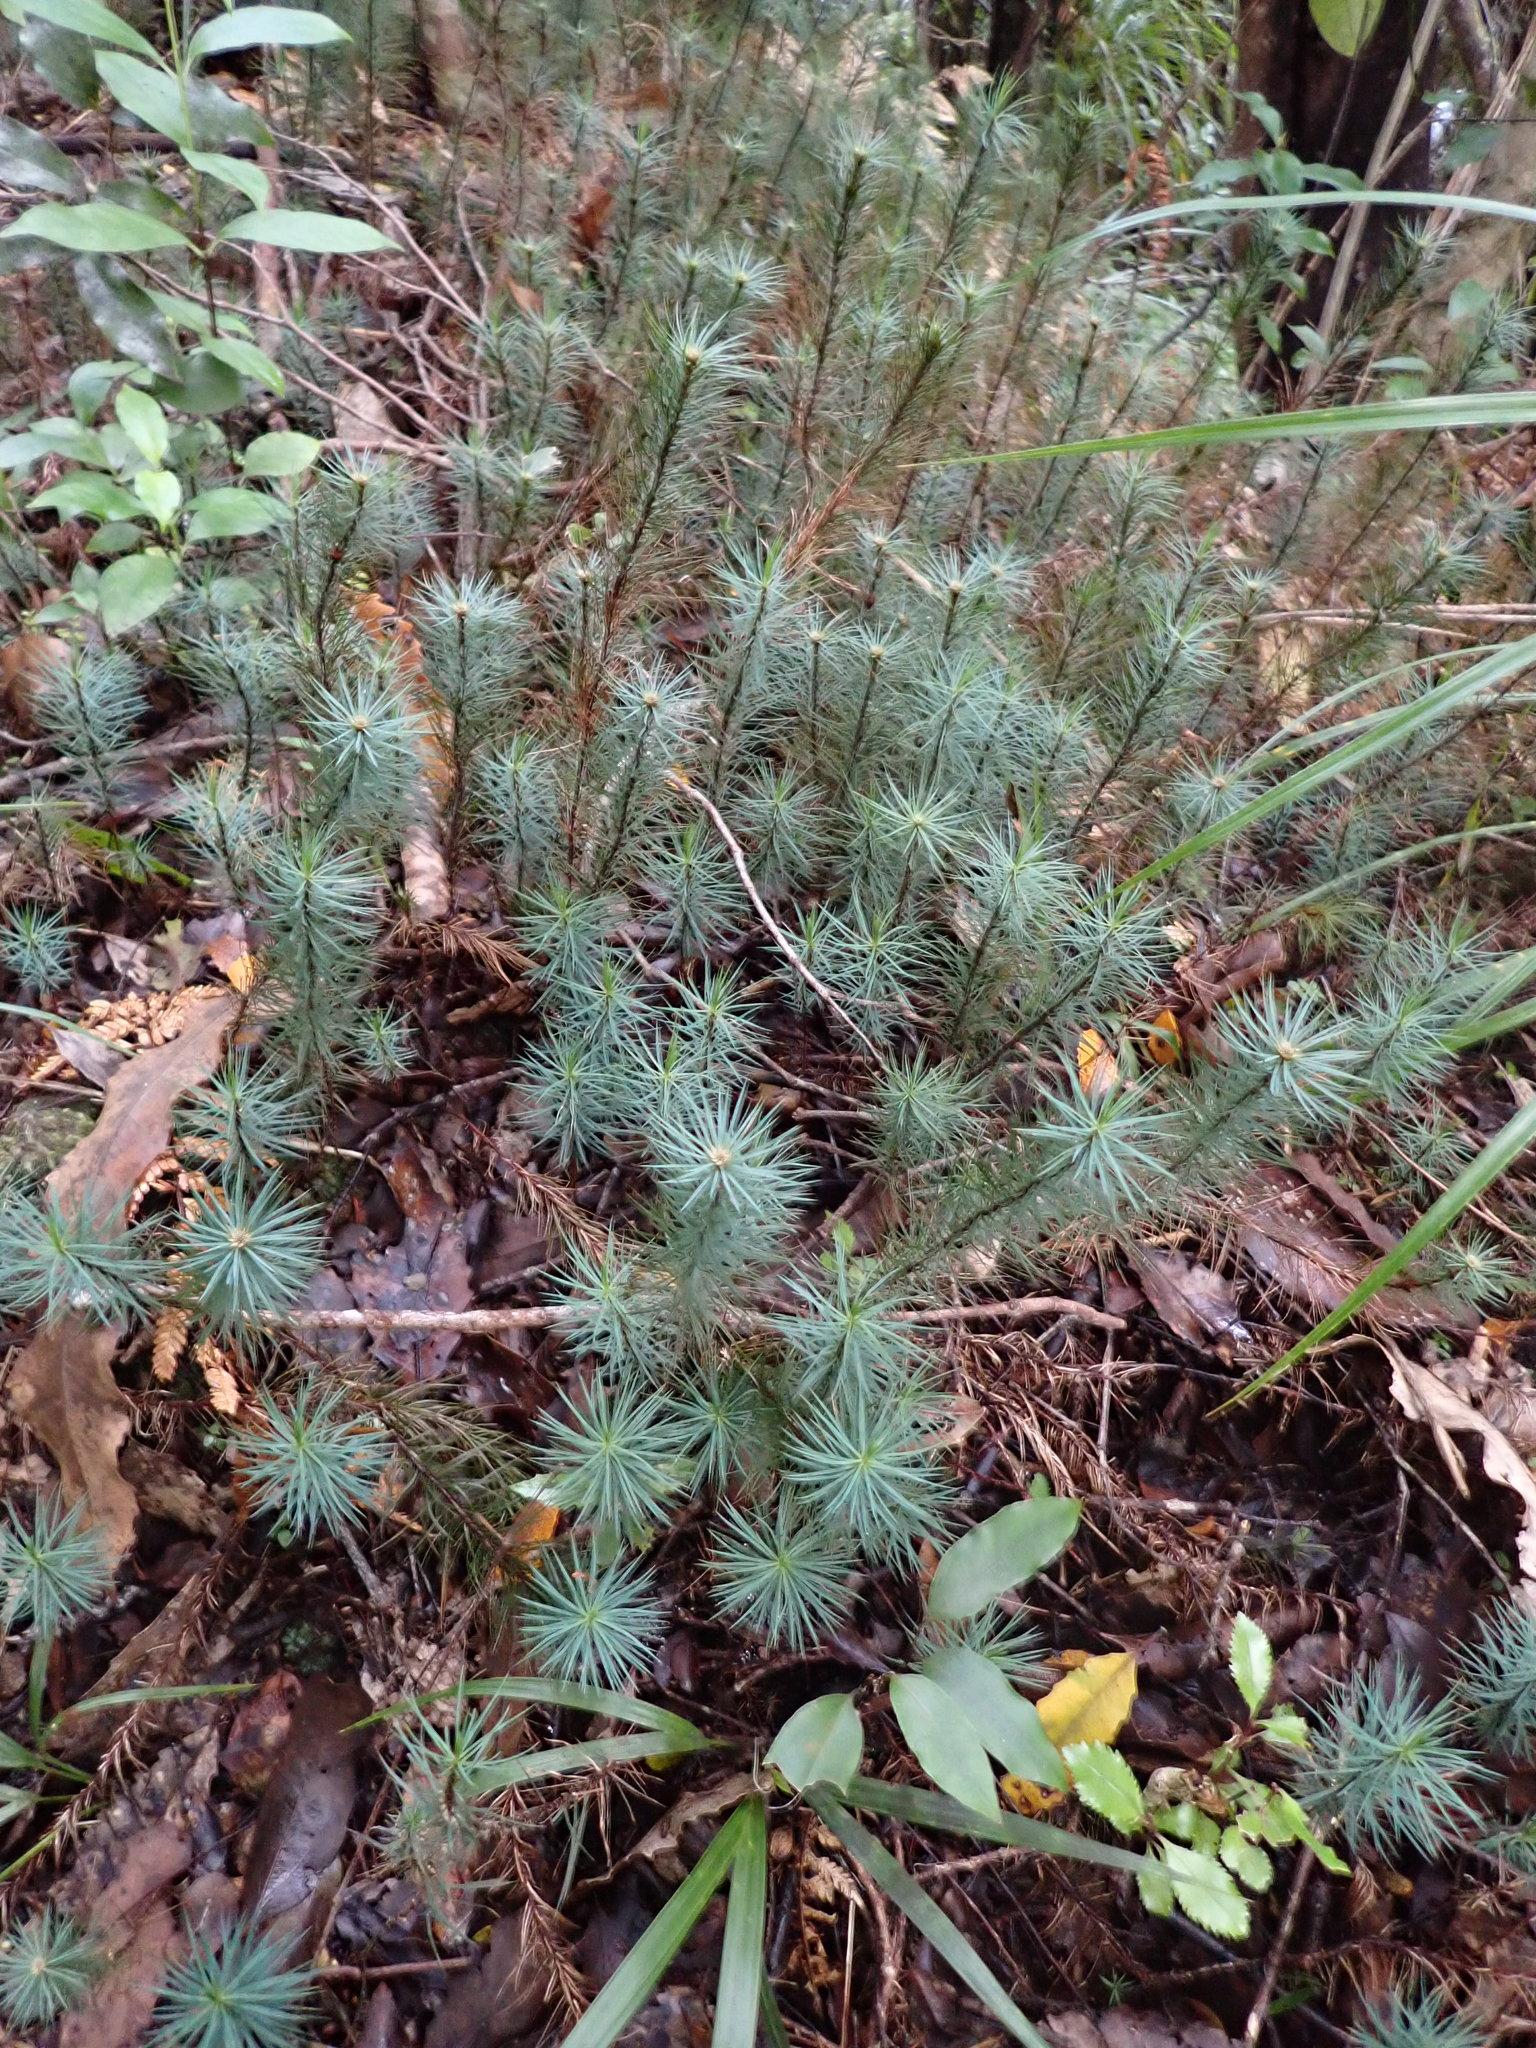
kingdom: Plantae
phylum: Bryophyta
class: Polytrichopsida
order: Polytrichales
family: Polytrichaceae
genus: Dawsonia
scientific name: Dawsonia superba
